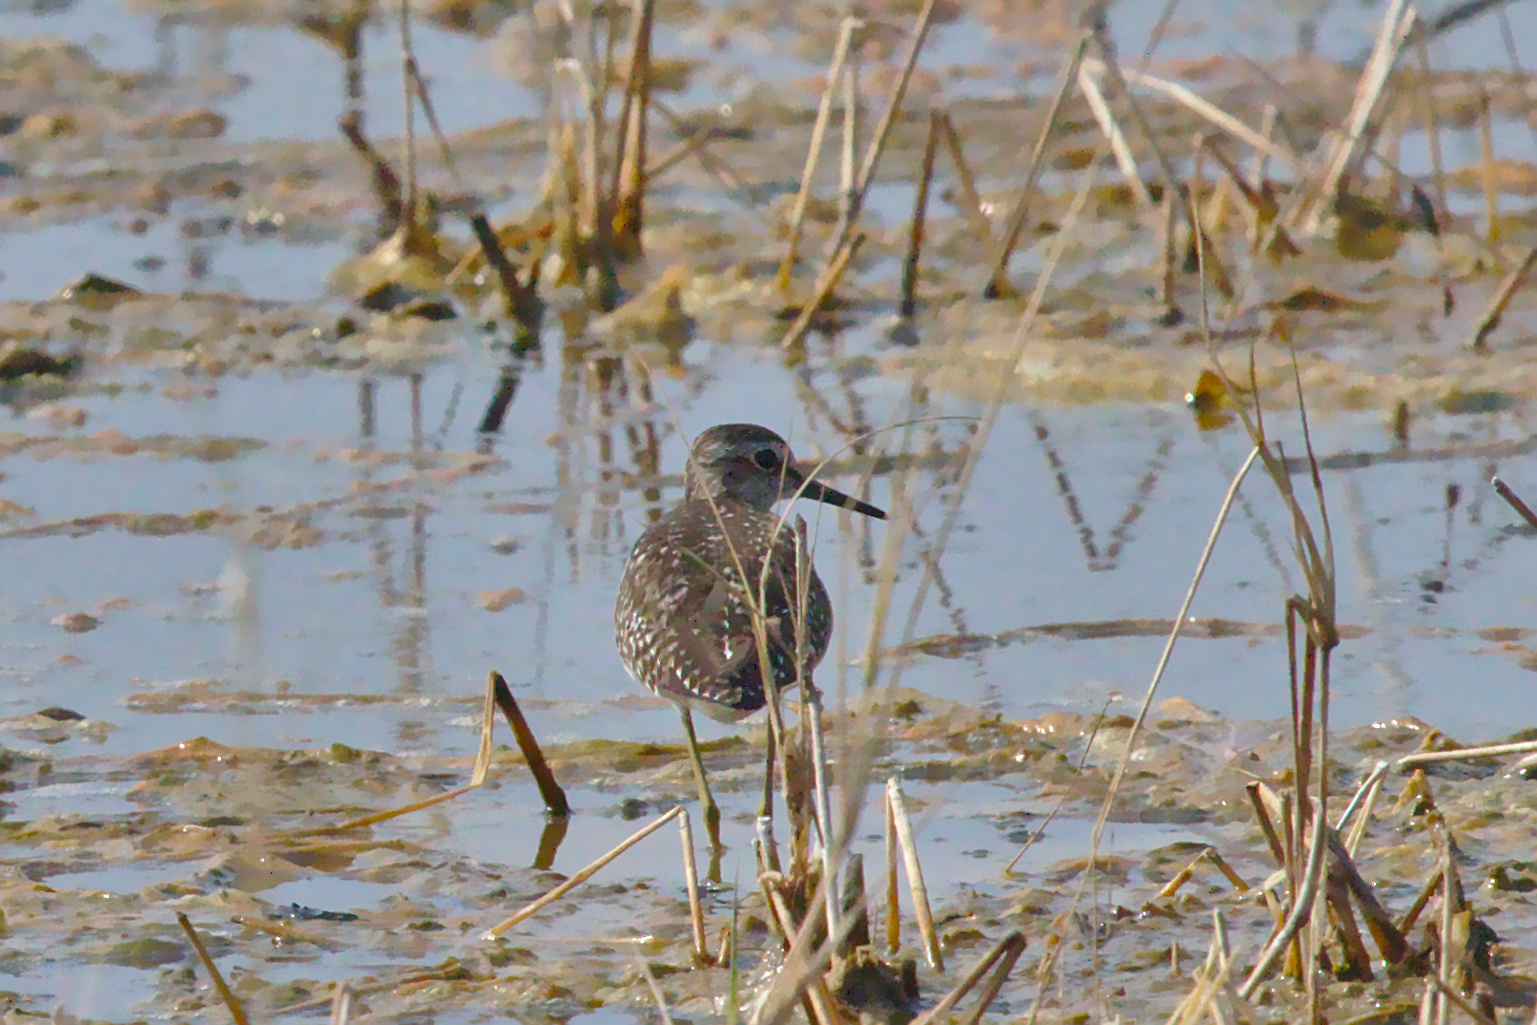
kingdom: Animalia
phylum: Chordata
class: Aves
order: Charadriiformes
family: Scolopacidae
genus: Tringa
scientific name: Tringa glareola
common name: Wood sandpiper
